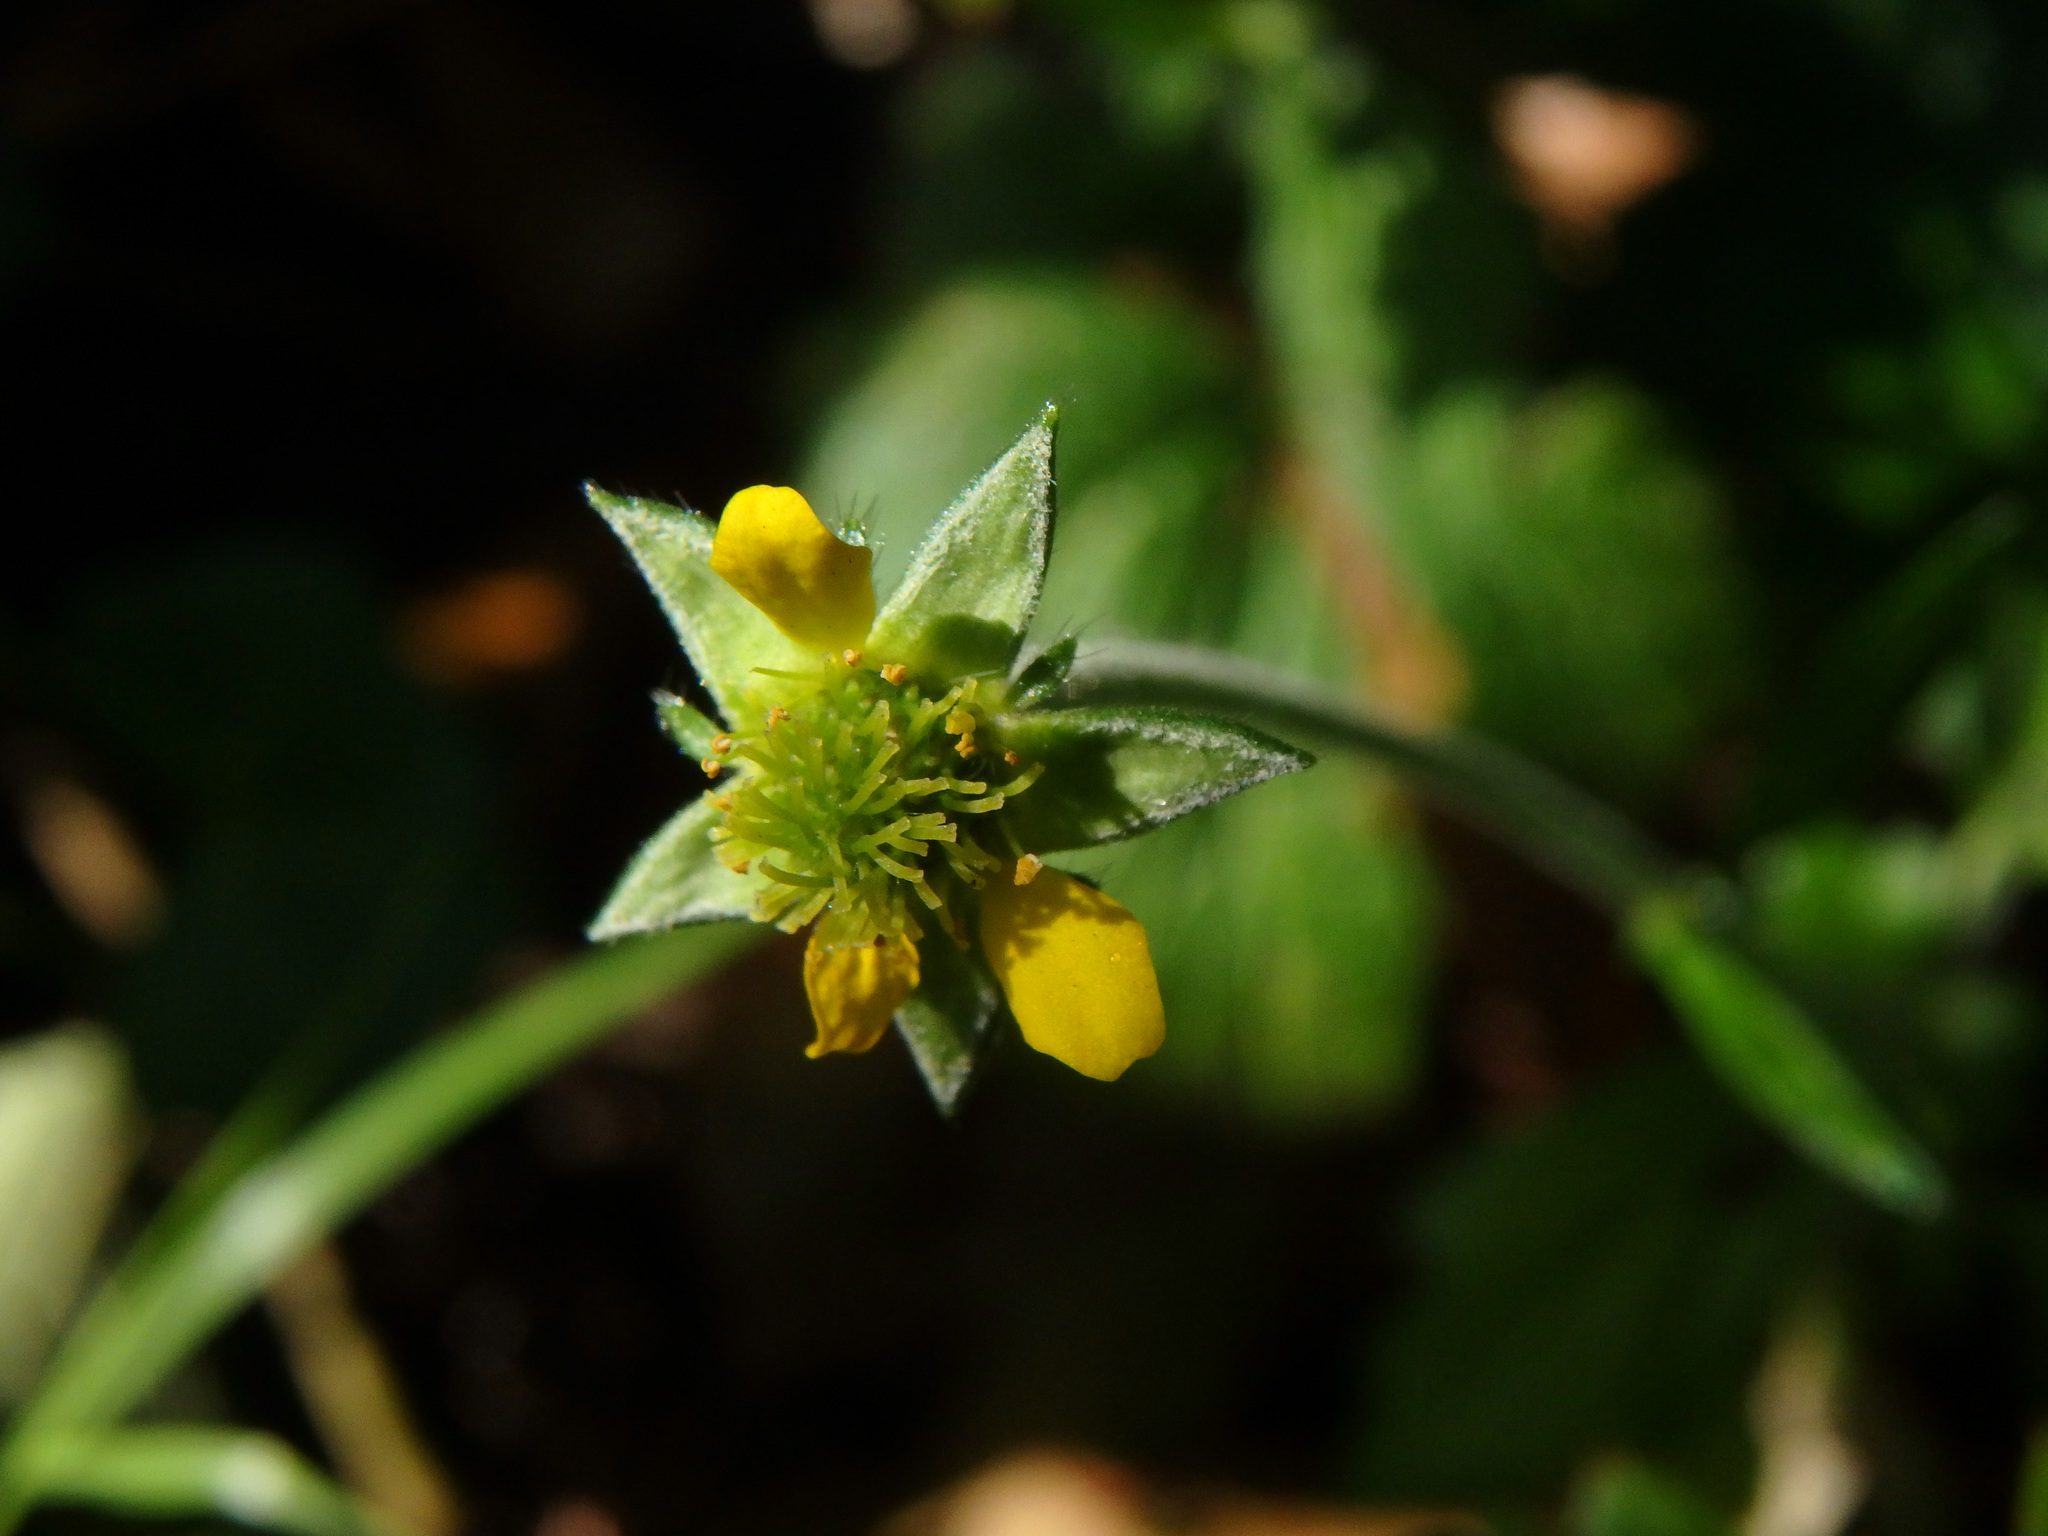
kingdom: Plantae
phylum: Tracheophyta
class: Magnoliopsida
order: Rosales
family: Rosaceae
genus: Geum
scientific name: Geum urbanum
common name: Wood avens
